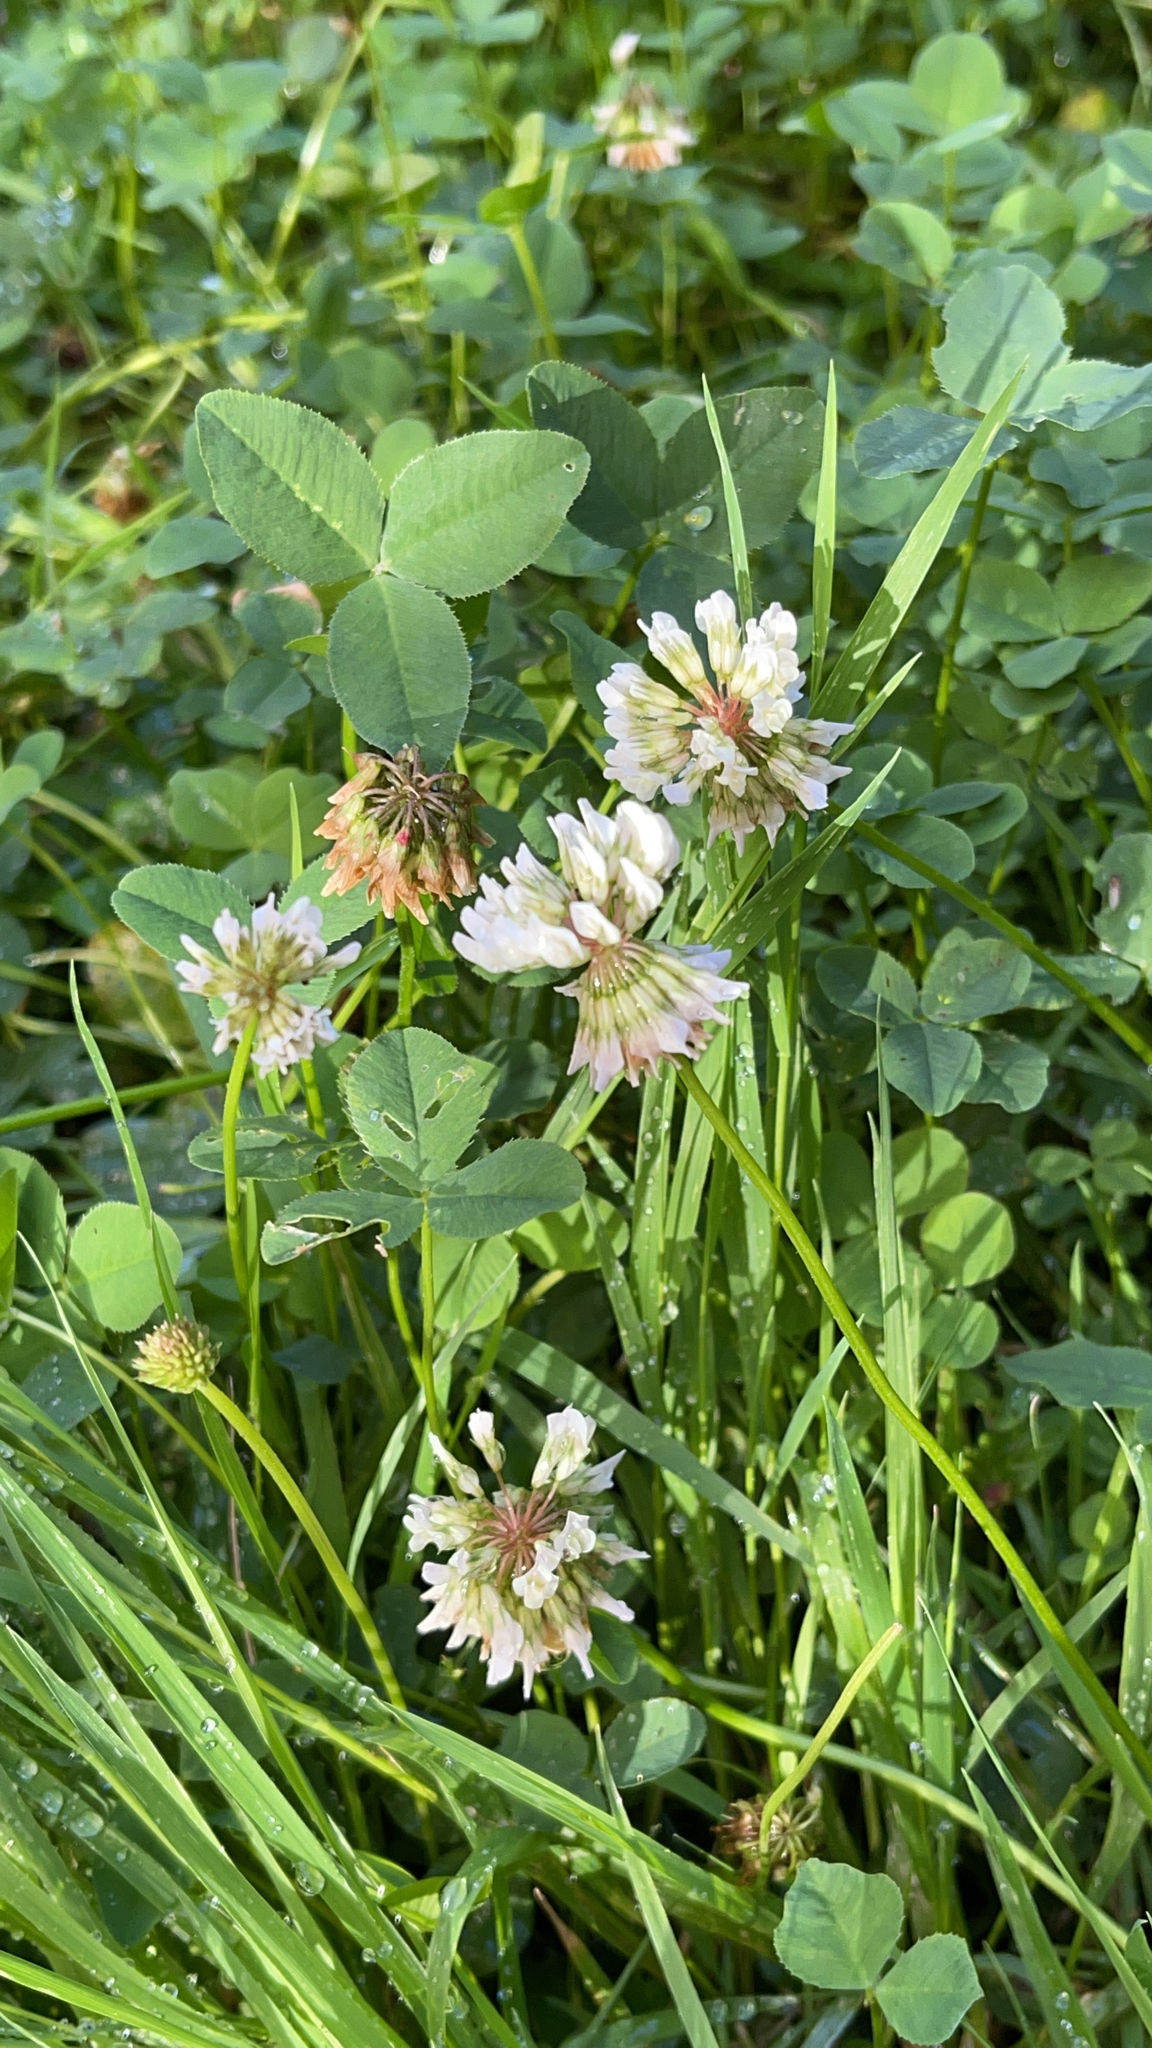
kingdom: Plantae
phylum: Tracheophyta
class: Magnoliopsida
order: Fabales
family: Fabaceae
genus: Trifolium
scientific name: Trifolium repens
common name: White clover
